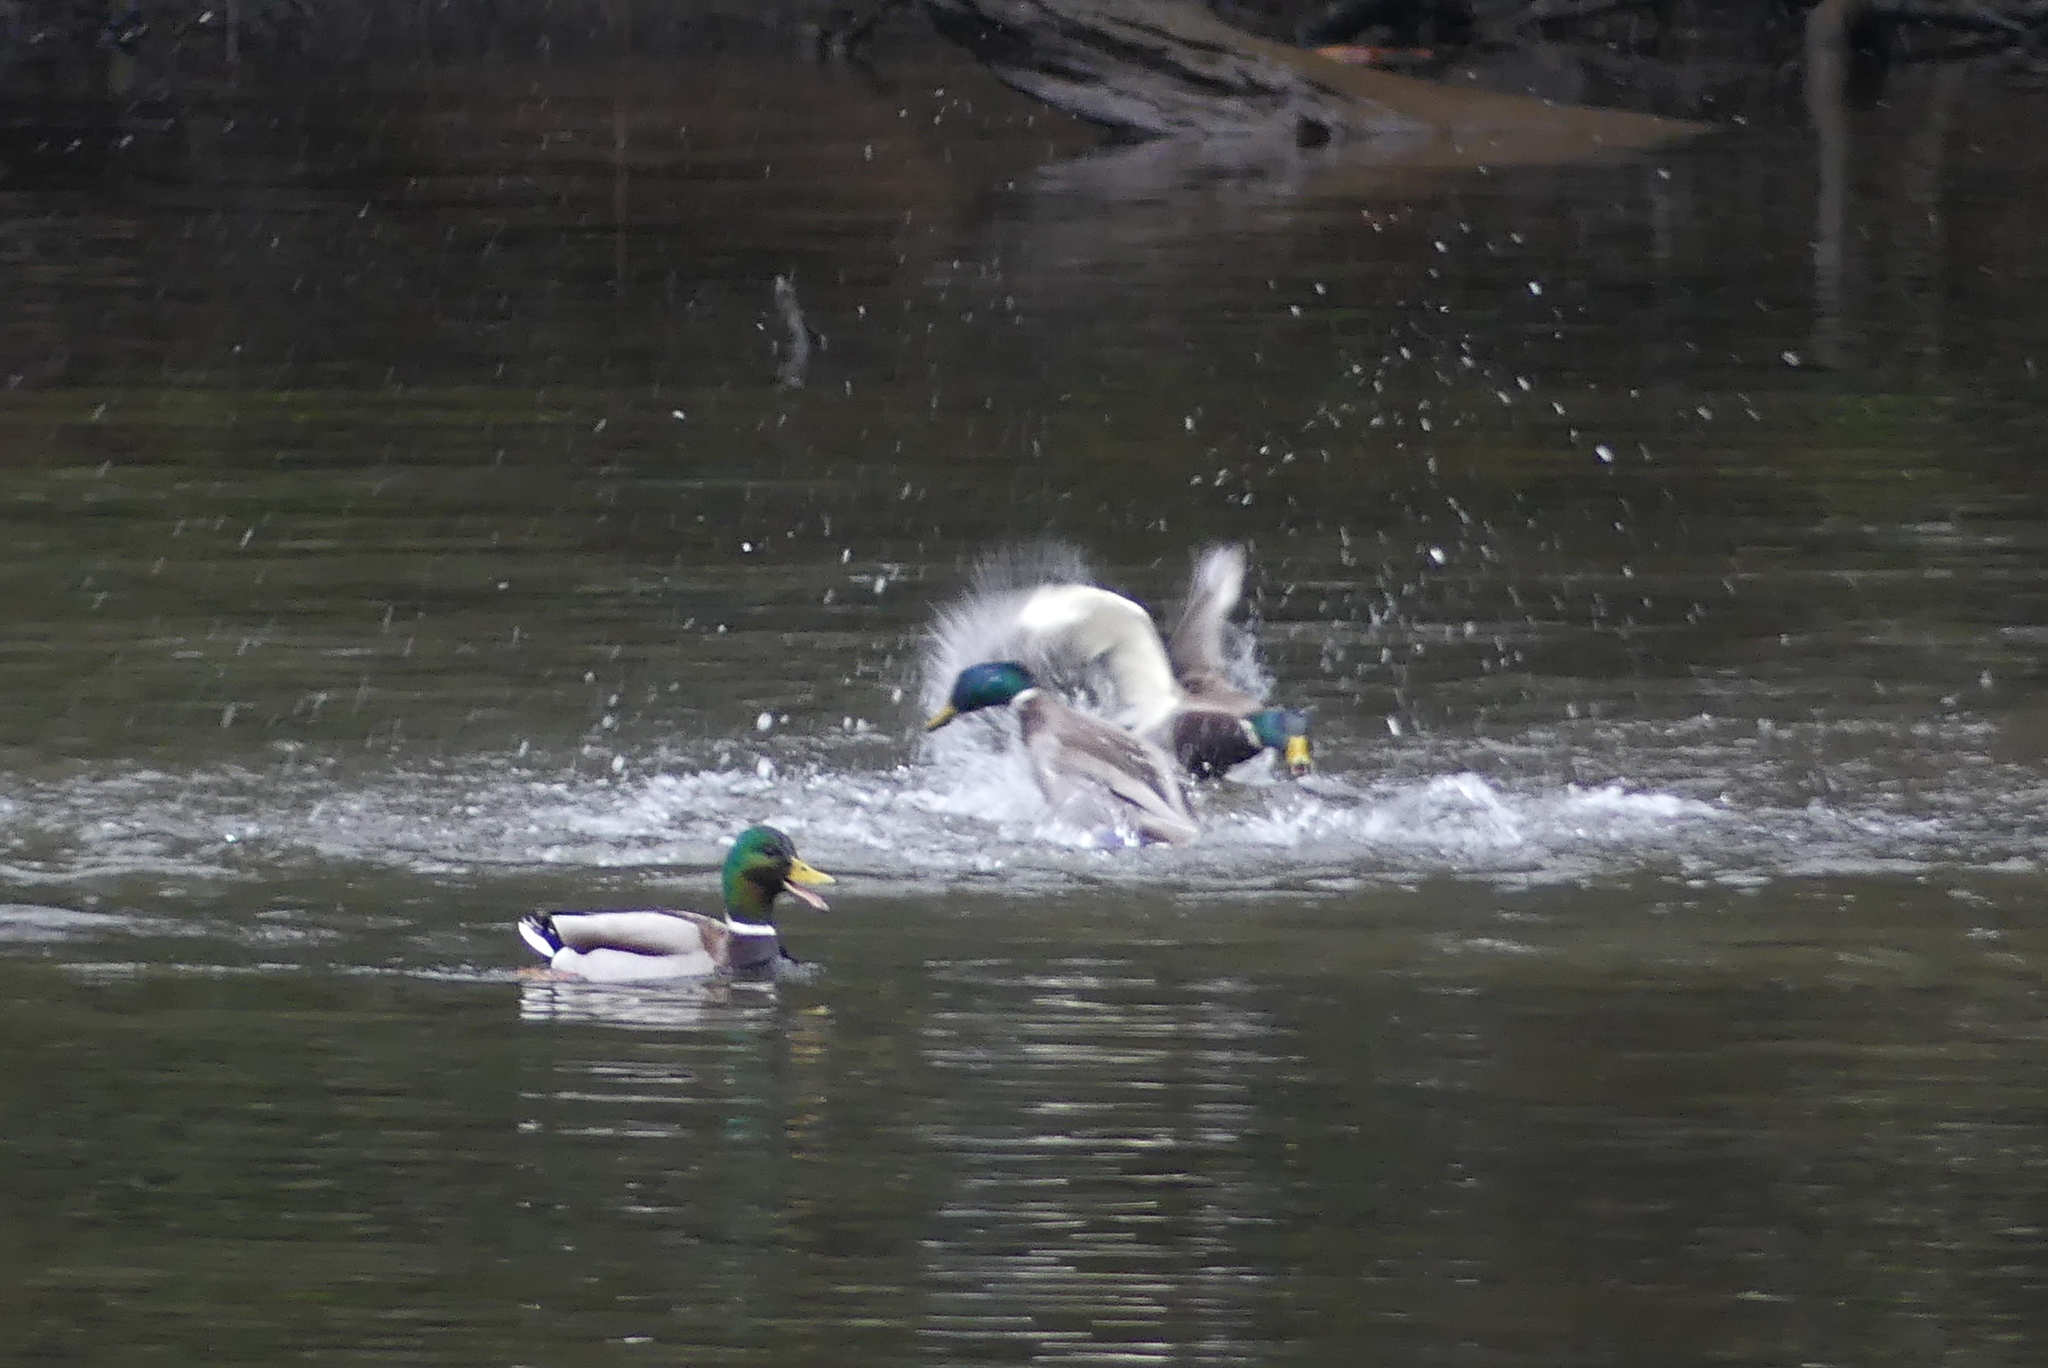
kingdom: Animalia
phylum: Chordata
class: Aves
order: Anseriformes
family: Anatidae
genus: Anas
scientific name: Anas platyrhynchos
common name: Mallard
